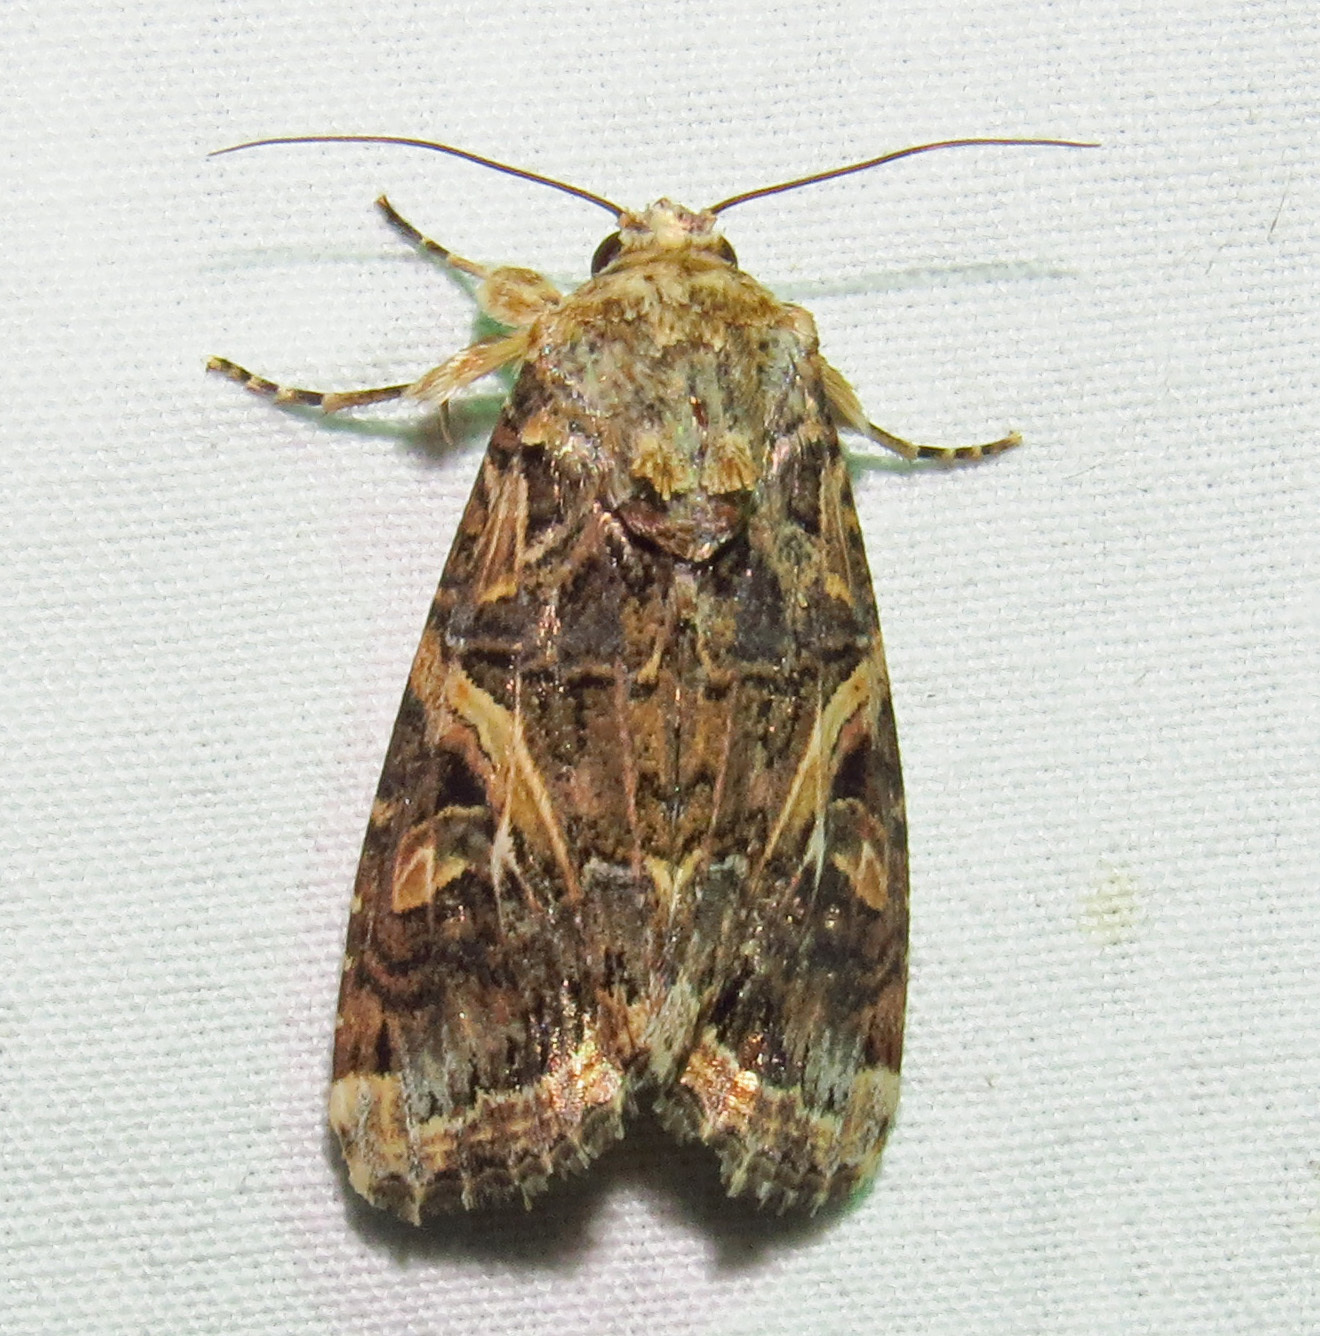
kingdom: Animalia
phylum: Arthropoda
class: Insecta
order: Lepidoptera
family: Noctuidae
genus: Spodoptera
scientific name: Spodoptera ornithogalli
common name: Yellow-striped armyworm
